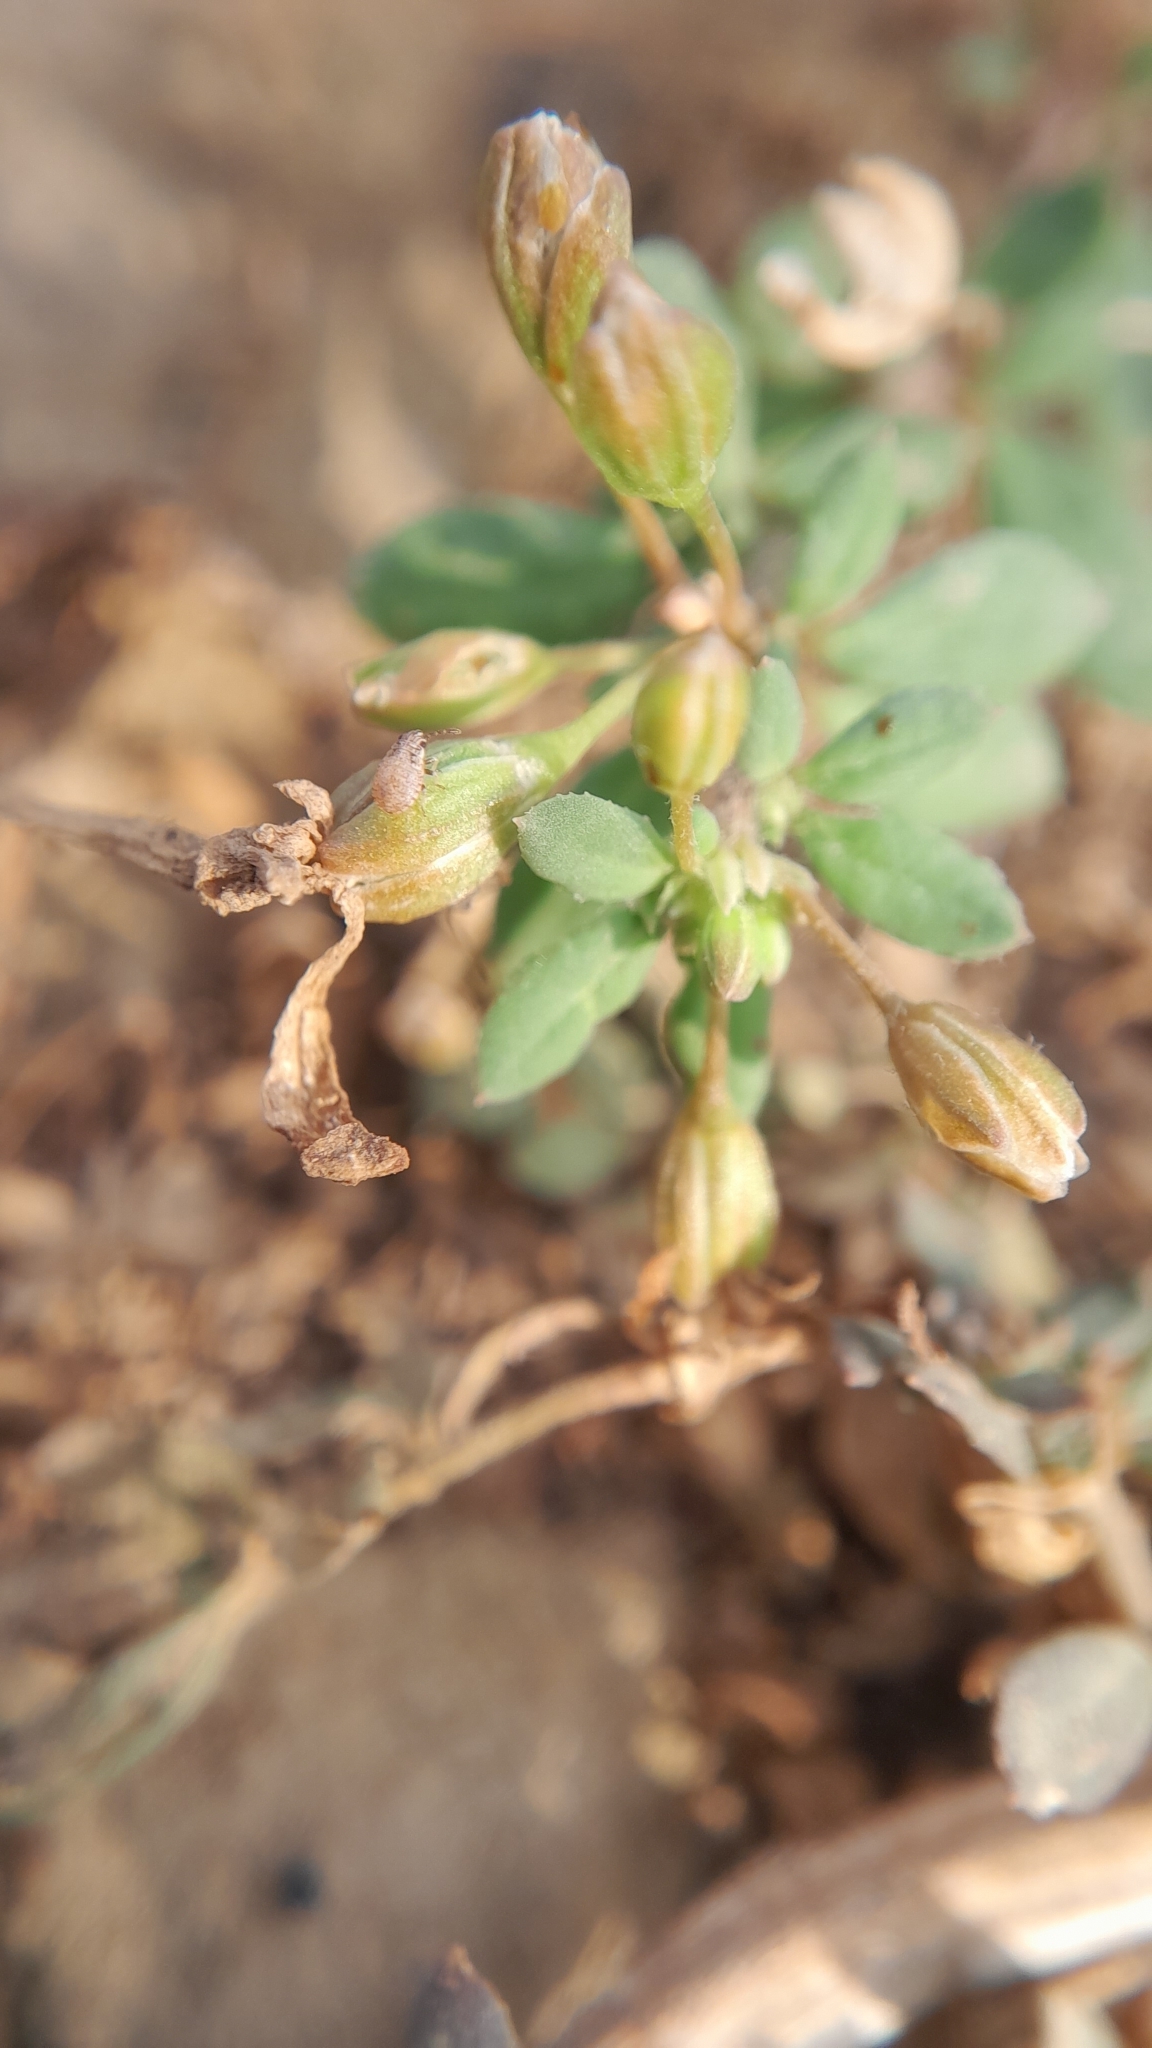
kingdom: Plantae
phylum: Tracheophyta
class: Magnoliopsida
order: Caryophyllales
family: Molluginaceae
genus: Glinus
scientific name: Glinus oppositifolius
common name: Slender carpetweed
